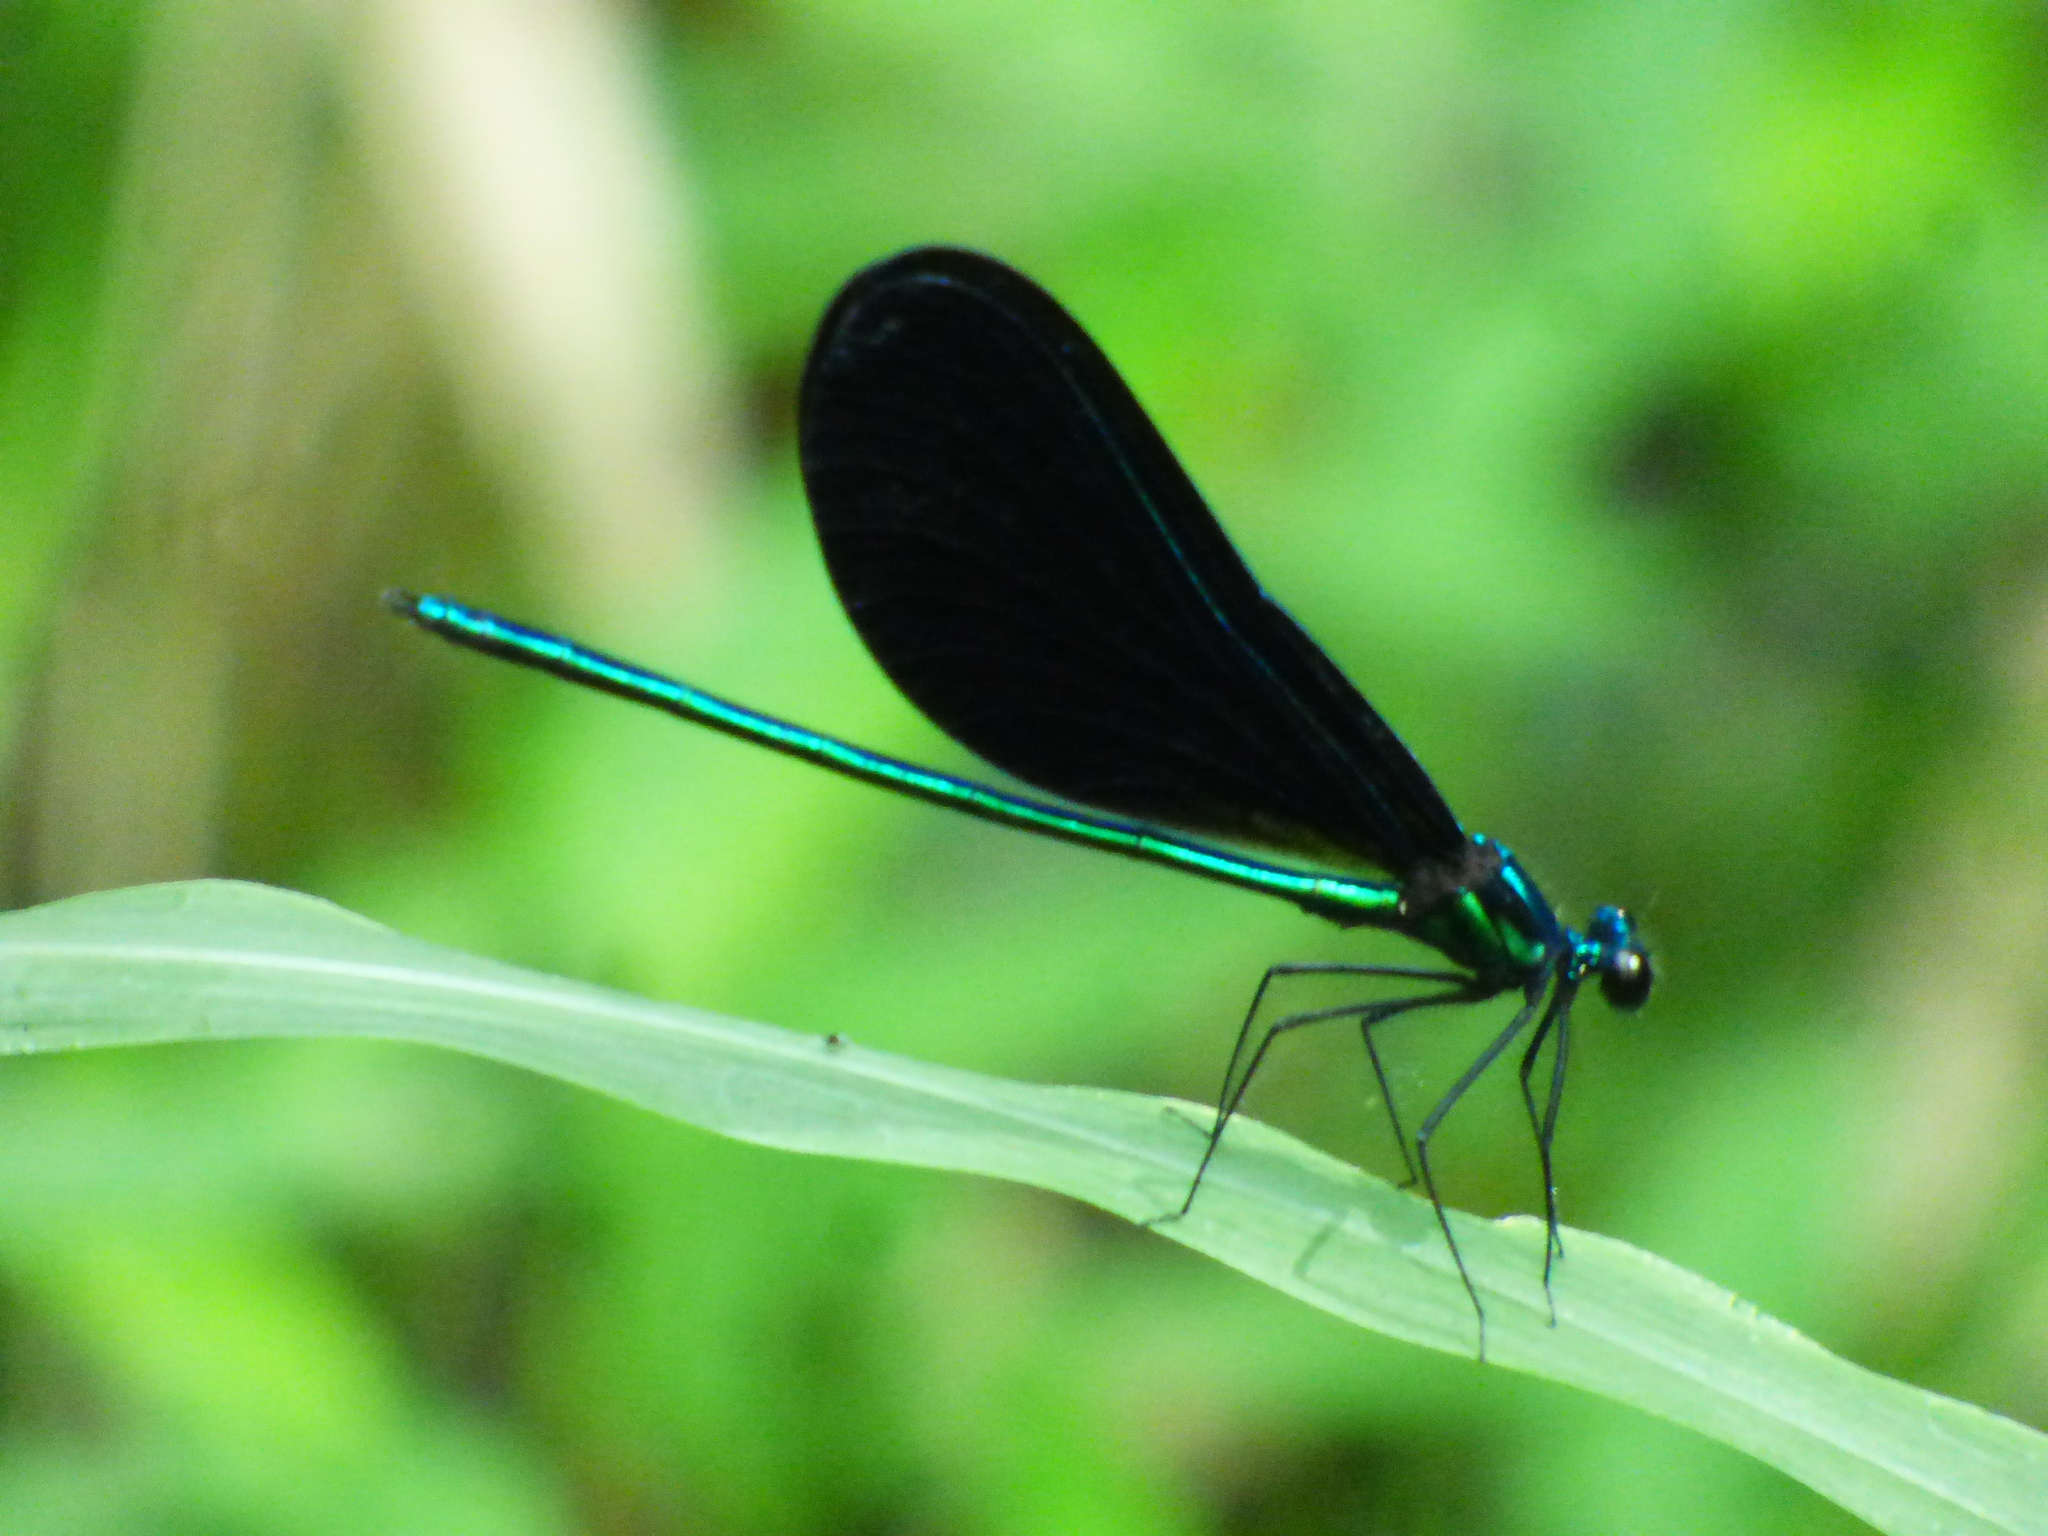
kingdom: Animalia
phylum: Arthropoda
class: Insecta
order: Odonata
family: Calopterygidae
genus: Calopteryx
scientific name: Calopteryx maculata
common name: Ebony jewelwing
